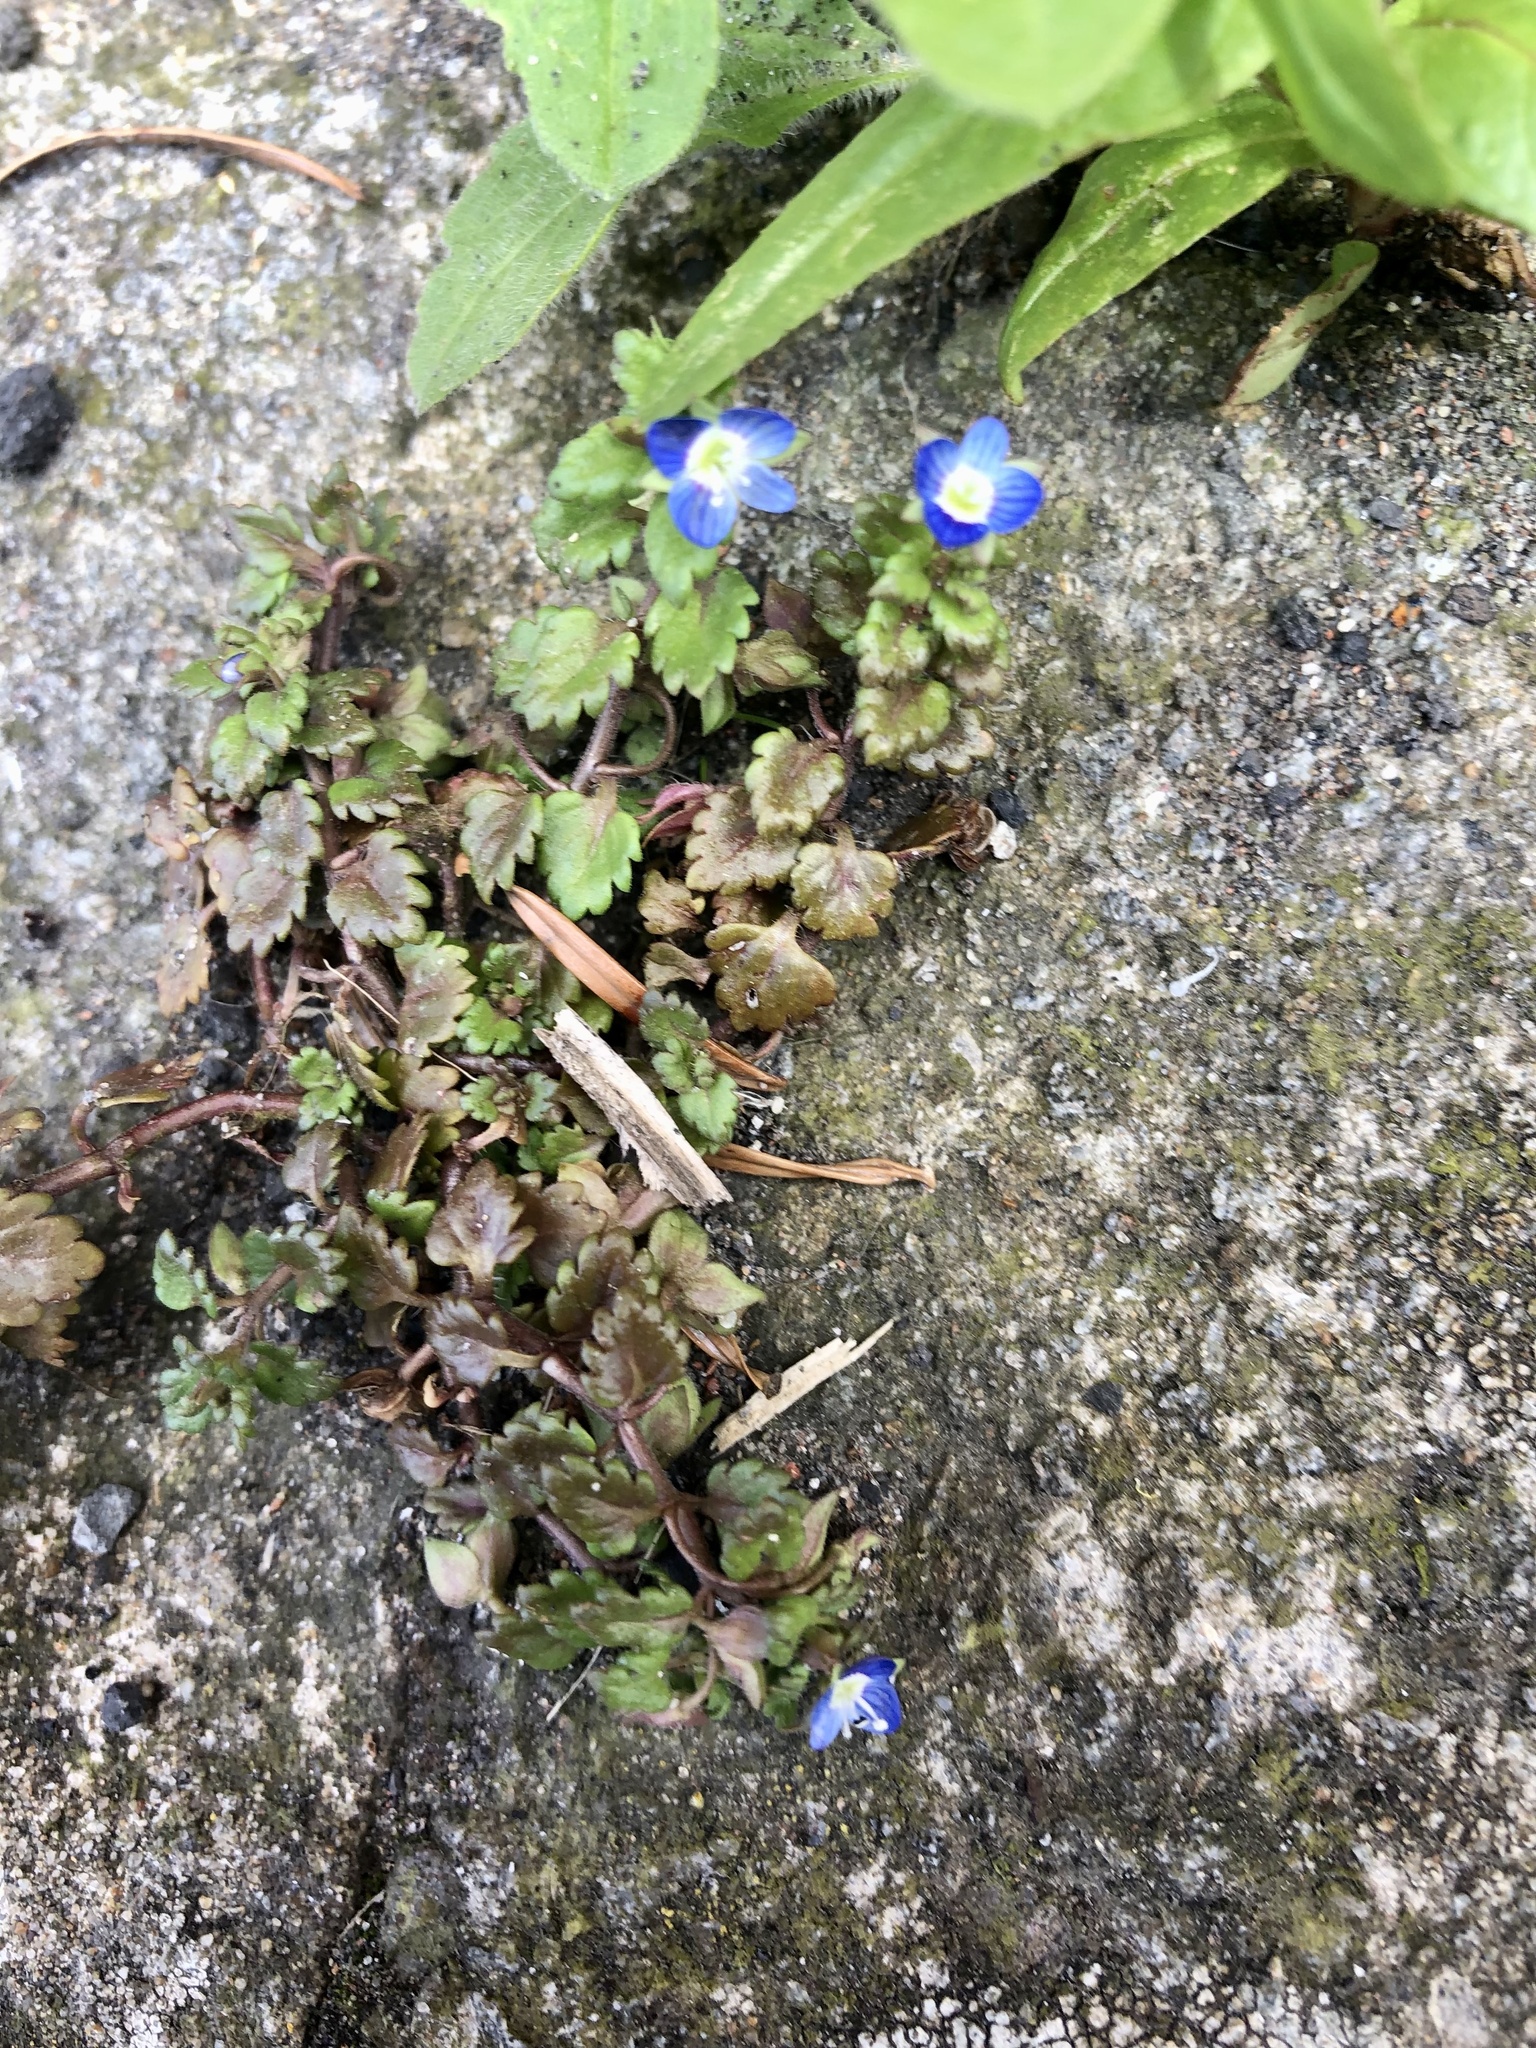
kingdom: Plantae
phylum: Tracheophyta
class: Magnoliopsida
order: Lamiales
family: Plantaginaceae
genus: Veronica
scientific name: Veronica polita
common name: Grey field-speedwell
